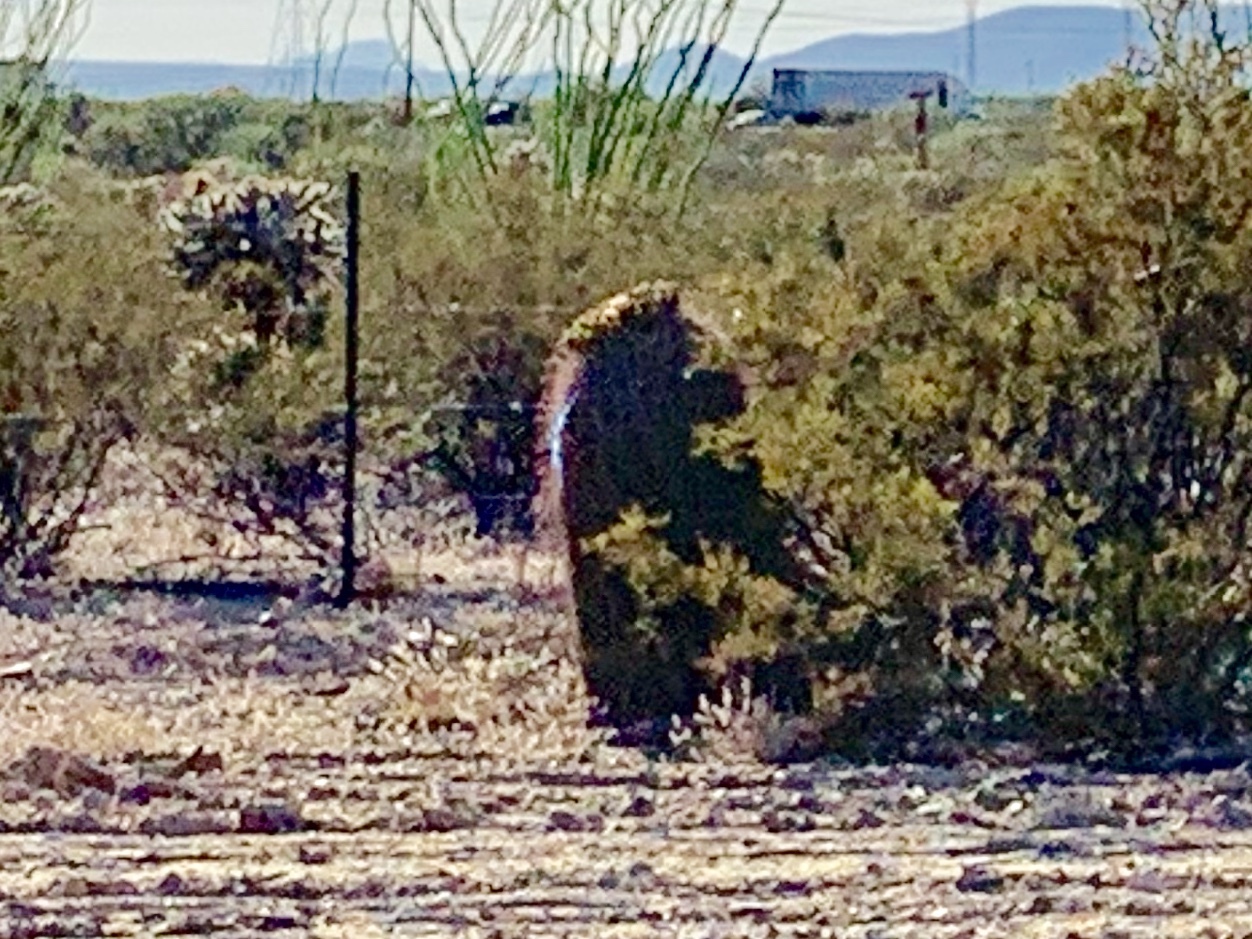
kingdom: Plantae
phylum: Tracheophyta
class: Magnoliopsida
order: Caryophyllales
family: Cactaceae
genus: Ferocactus
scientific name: Ferocactus wislizeni
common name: Candy barrel cactus
